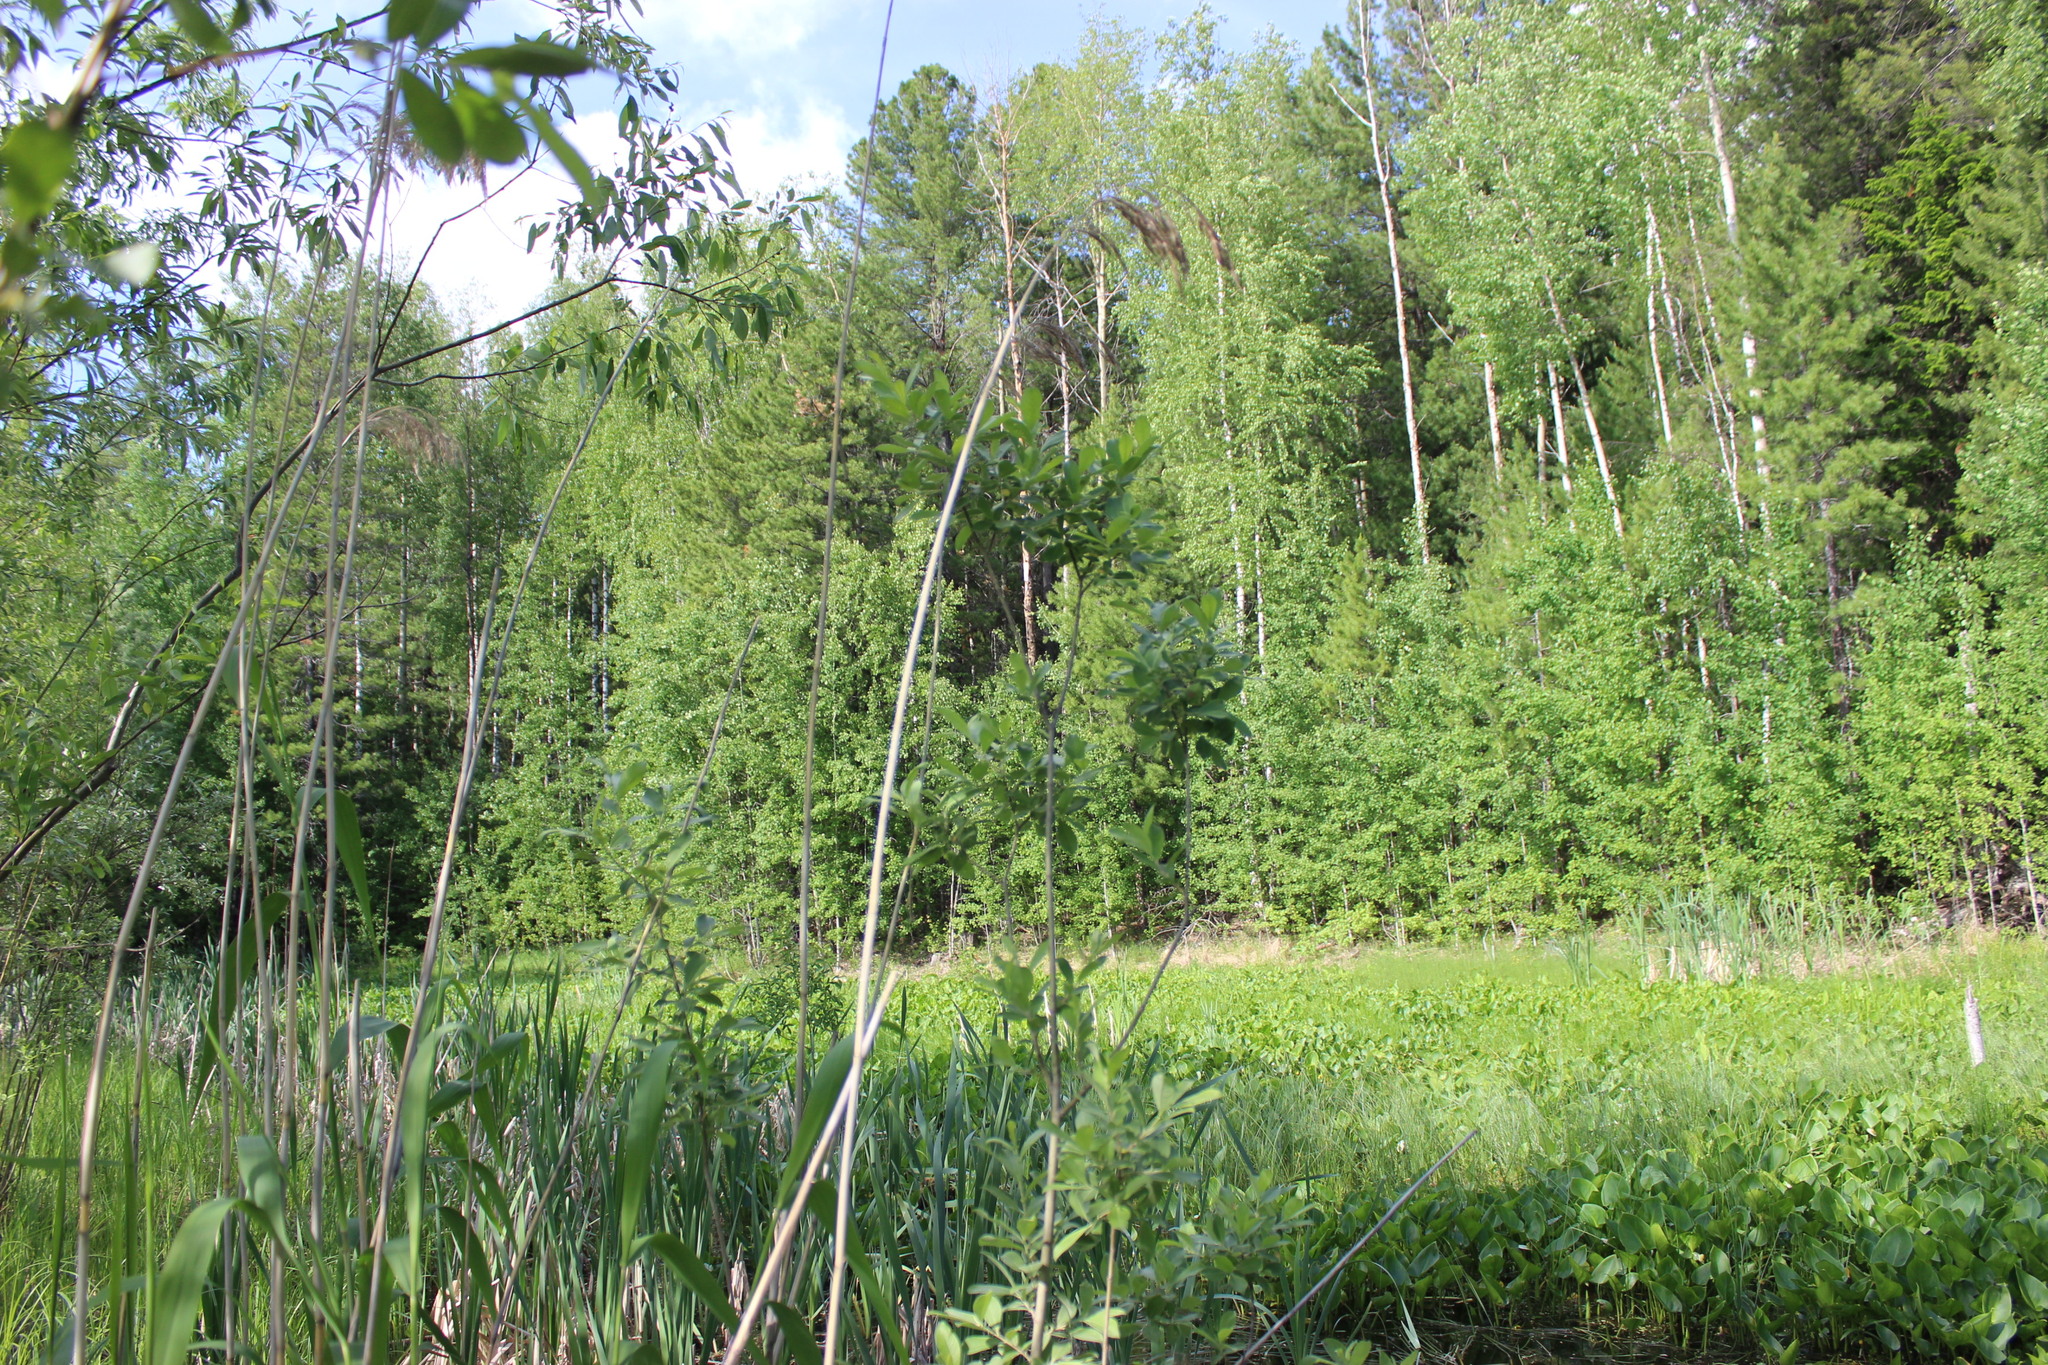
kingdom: Plantae
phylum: Tracheophyta
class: Liliopsida
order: Alismatales
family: Araceae
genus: Calla
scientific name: Calla palustris
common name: Bog arum
